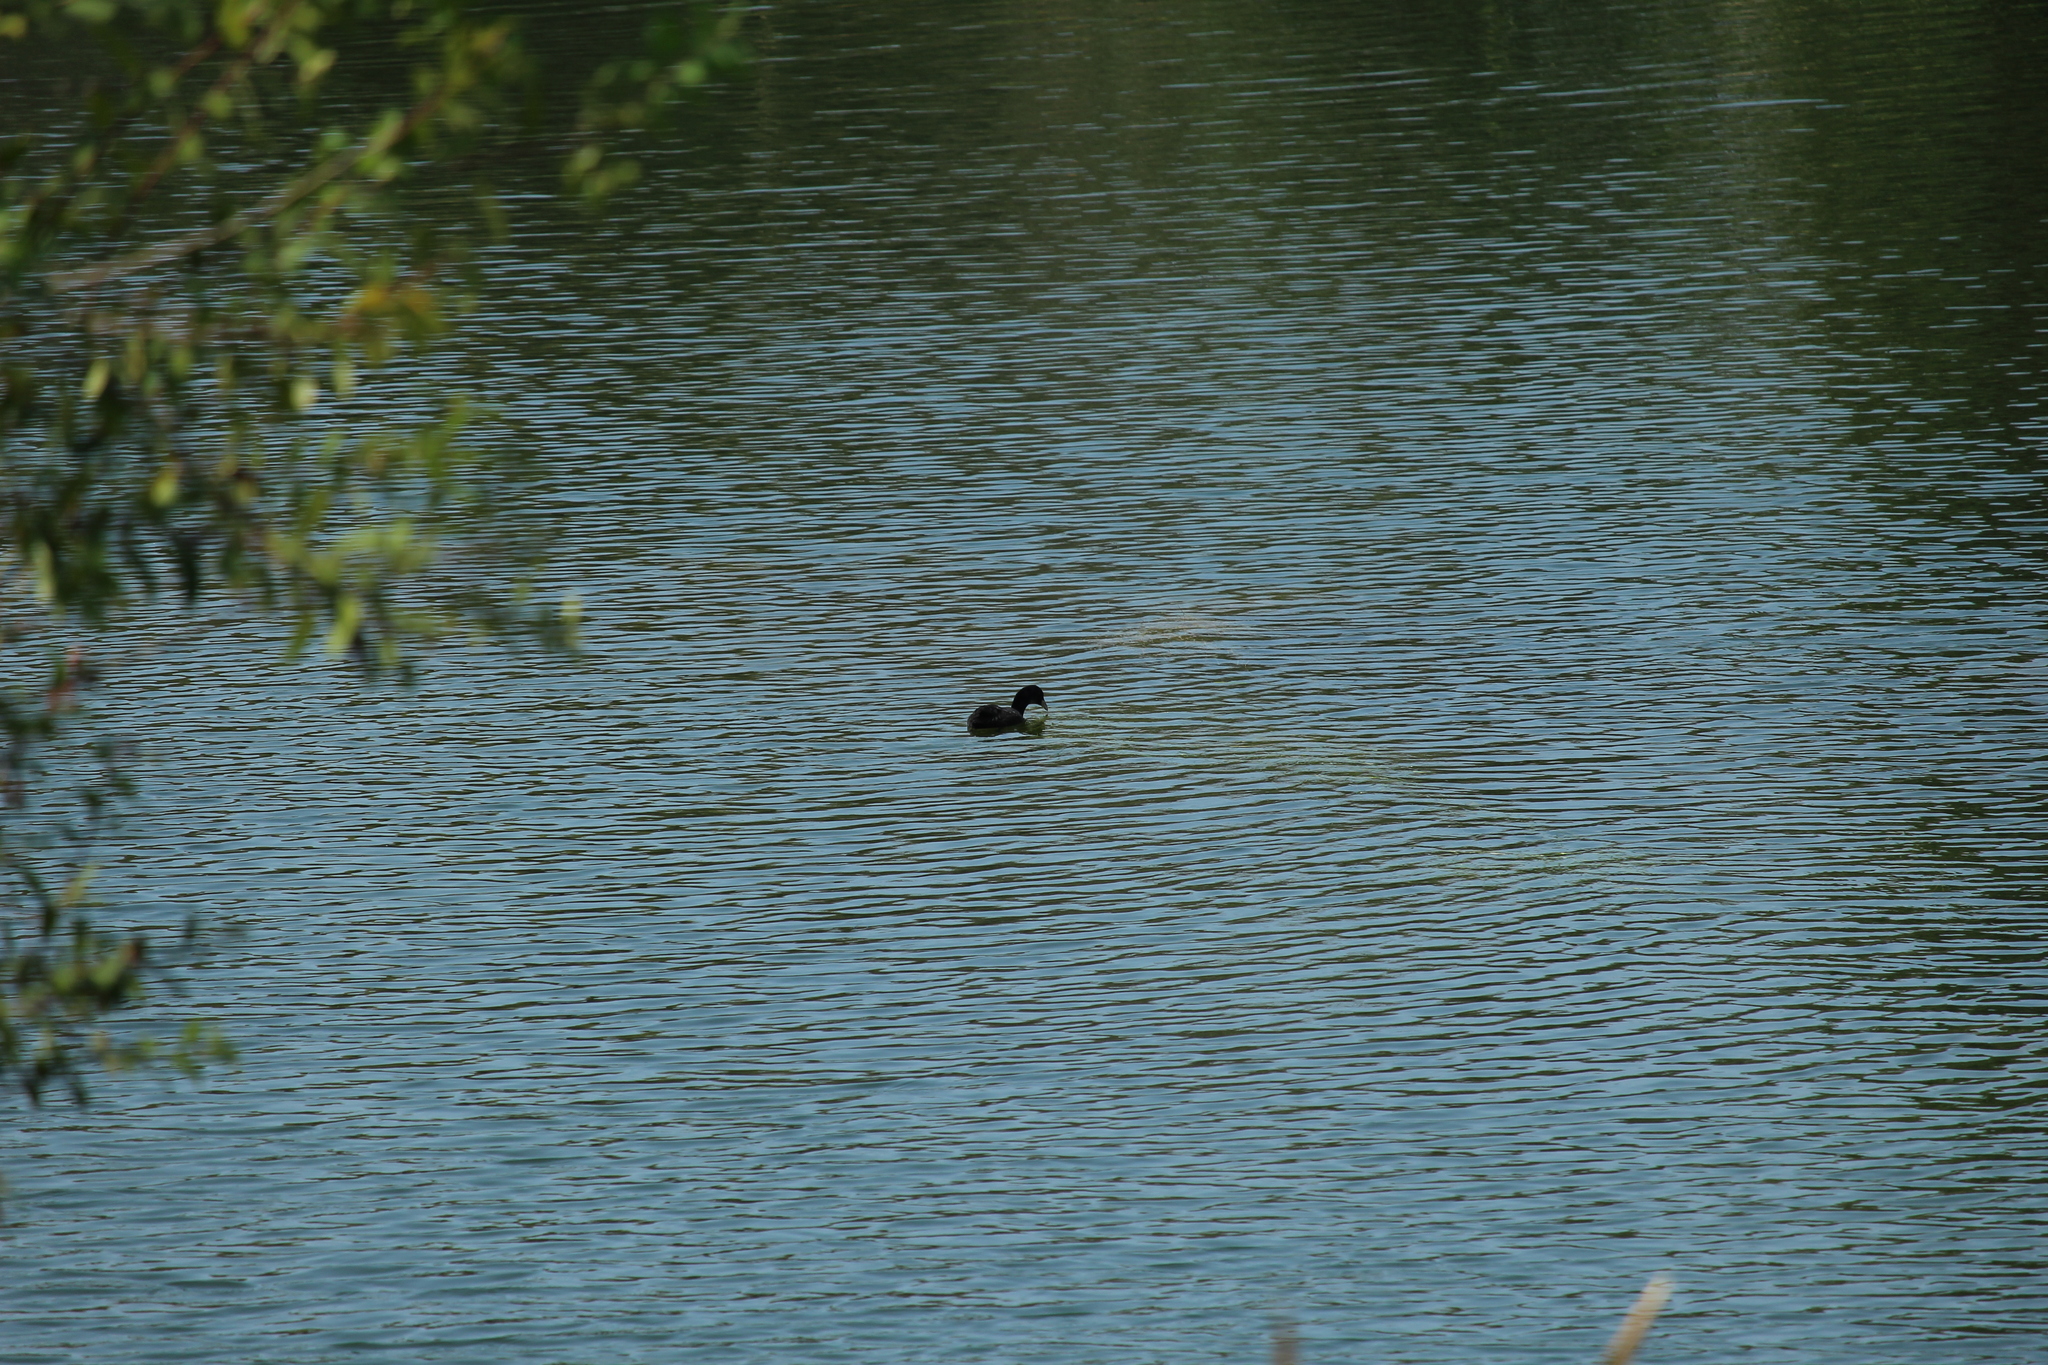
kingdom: Animalia
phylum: Chordata
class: Aves
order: Gruiformes
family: Rallidae
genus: Fulica
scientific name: Fulica atra
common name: Eurasian coot
